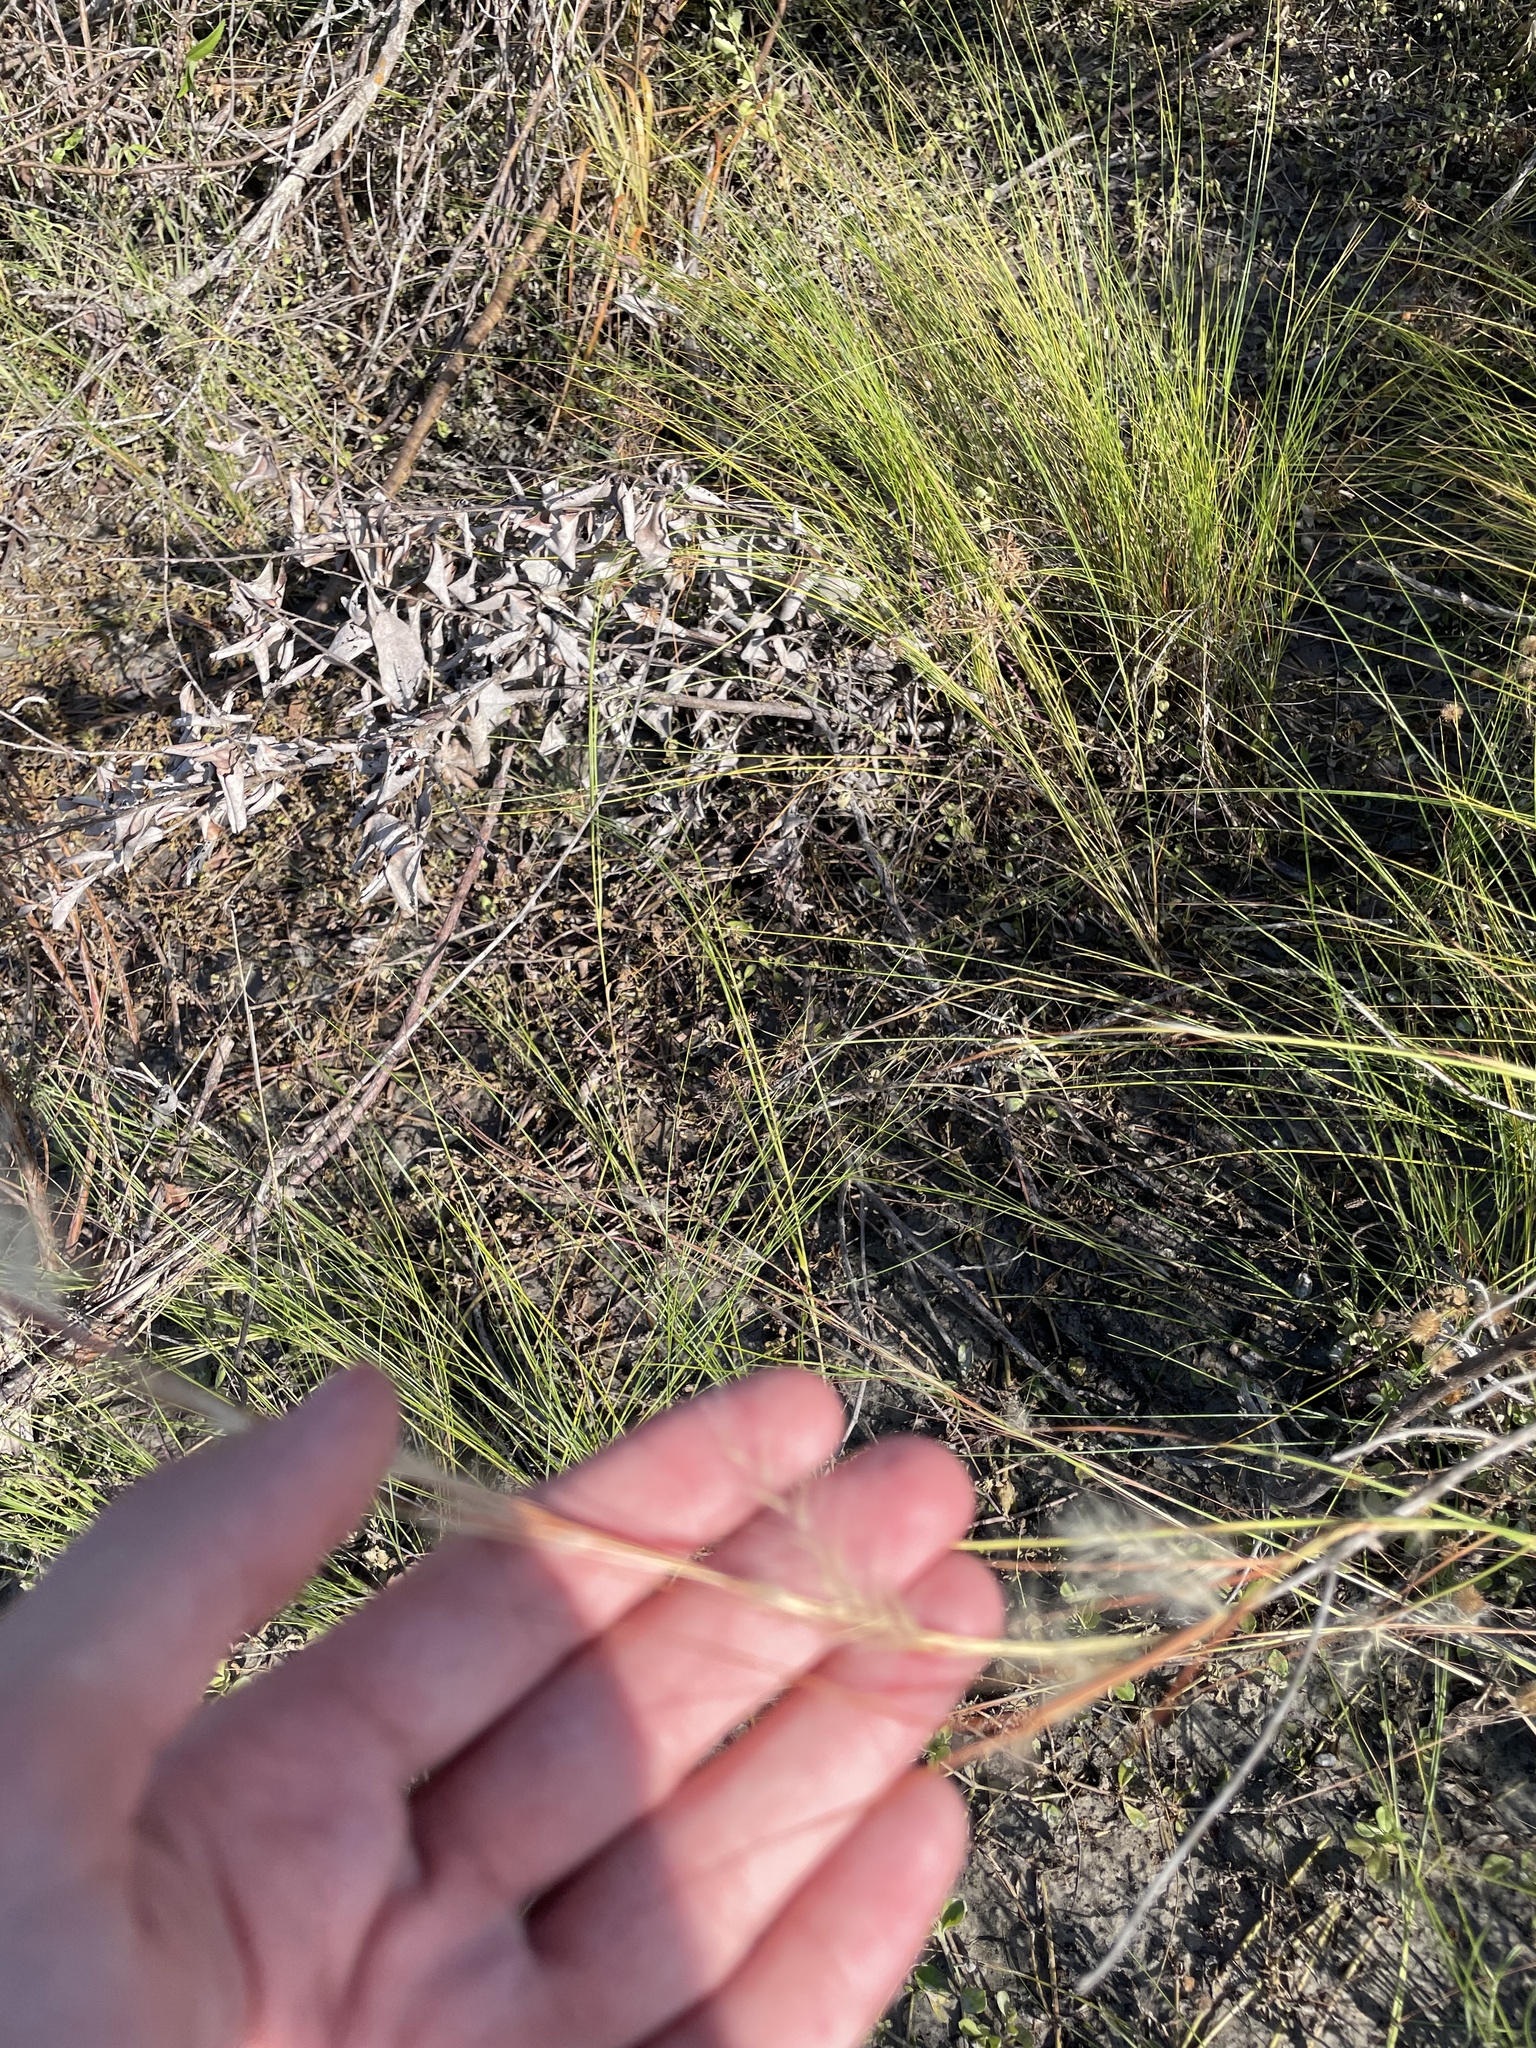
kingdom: Plantae
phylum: Tracheophyta
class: Liliopsida
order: Poales
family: Poaceae
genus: Andropogon
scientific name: Andropogon longiberbis
